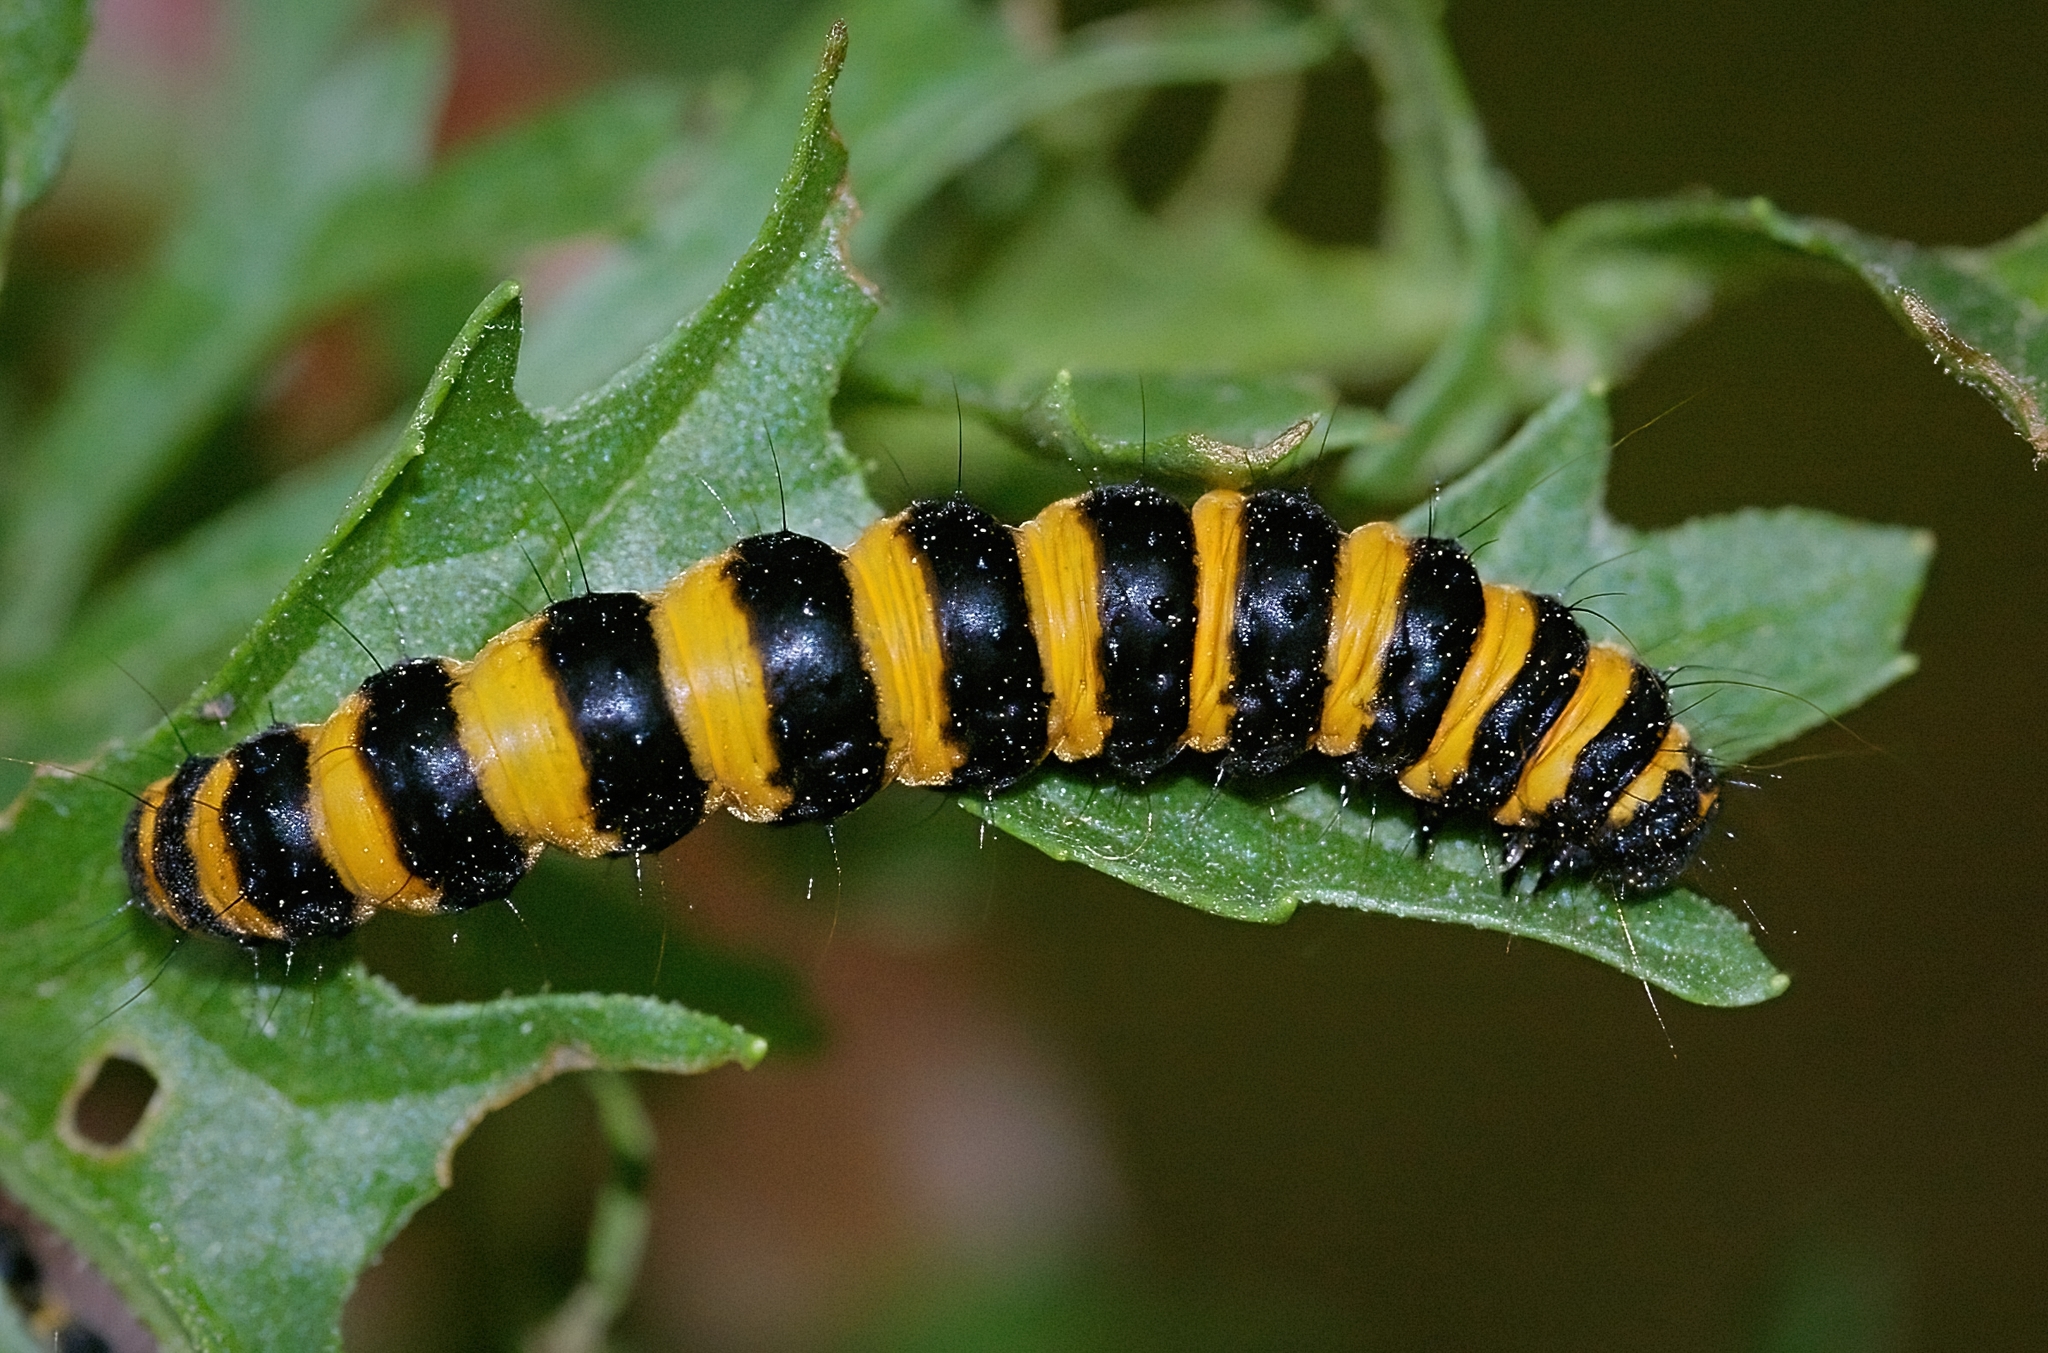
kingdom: Animalia
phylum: Arthropoda
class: Insecta
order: Lepidoptera
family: Erebidae
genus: Tyria
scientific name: Tyria jacobaeae
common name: Cinnabar
